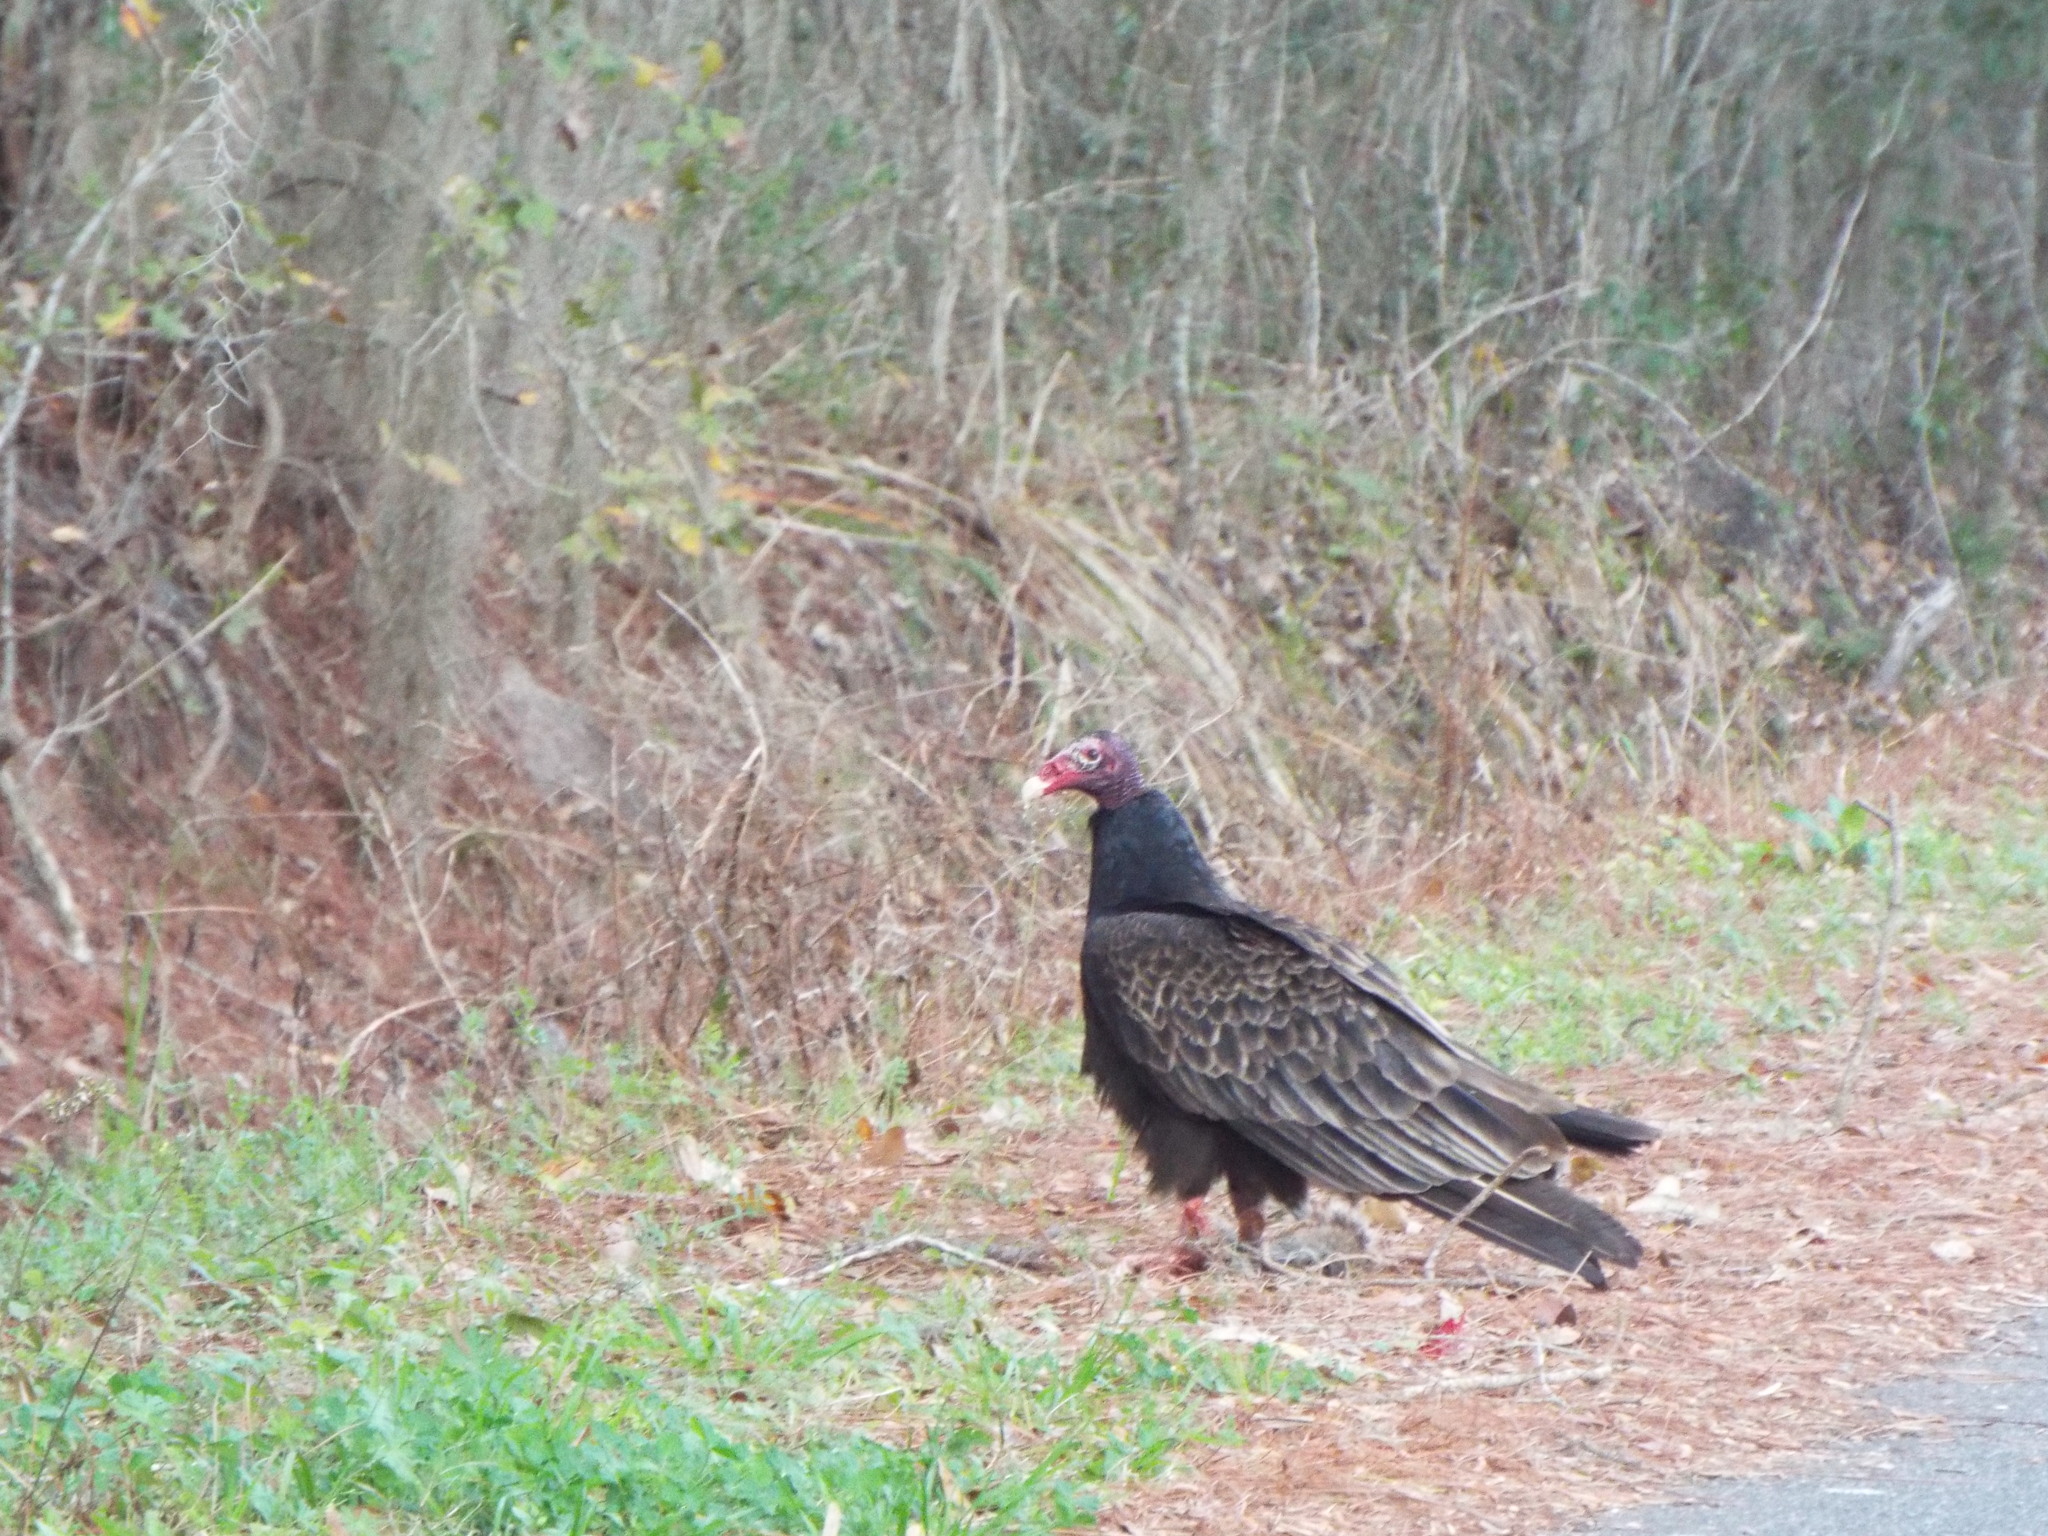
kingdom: Animalia
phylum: Chordata
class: Aves
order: Accipitriformes
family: Cathartidae
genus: Cathartes
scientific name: Cathartes aura
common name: Turkey vulture
